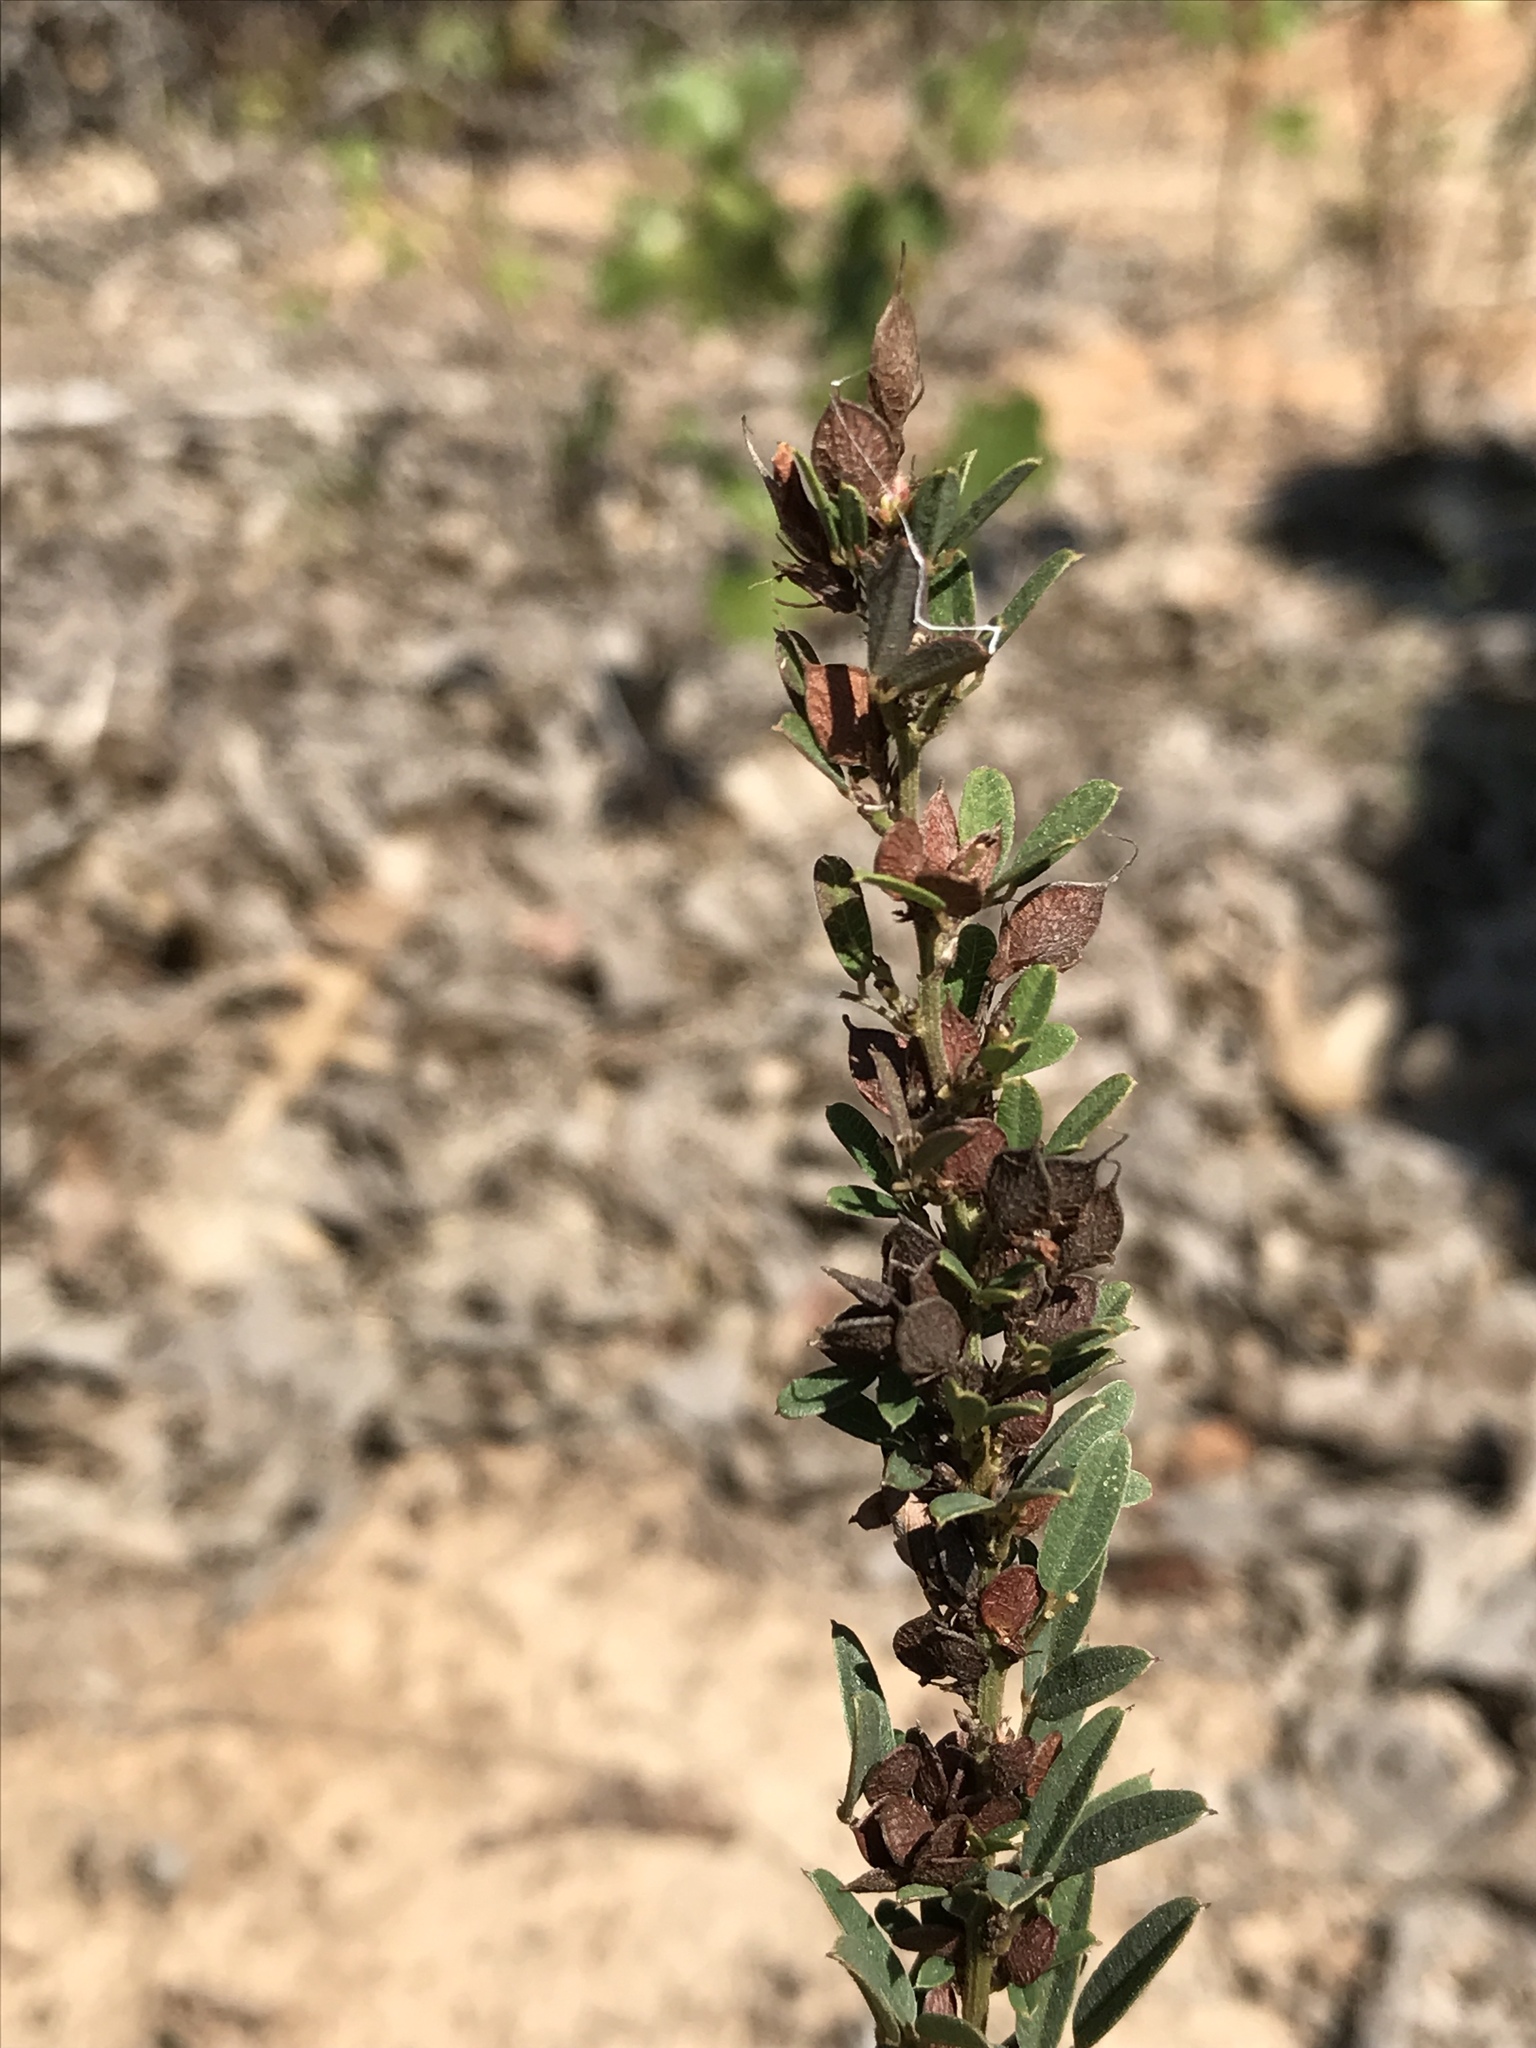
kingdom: Plantae
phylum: Tracheophyta
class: Magnoliopsida
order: Fabales
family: Fabaceae
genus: Lespedeza
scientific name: Lespedeza virginica
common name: Slender bush-clover
